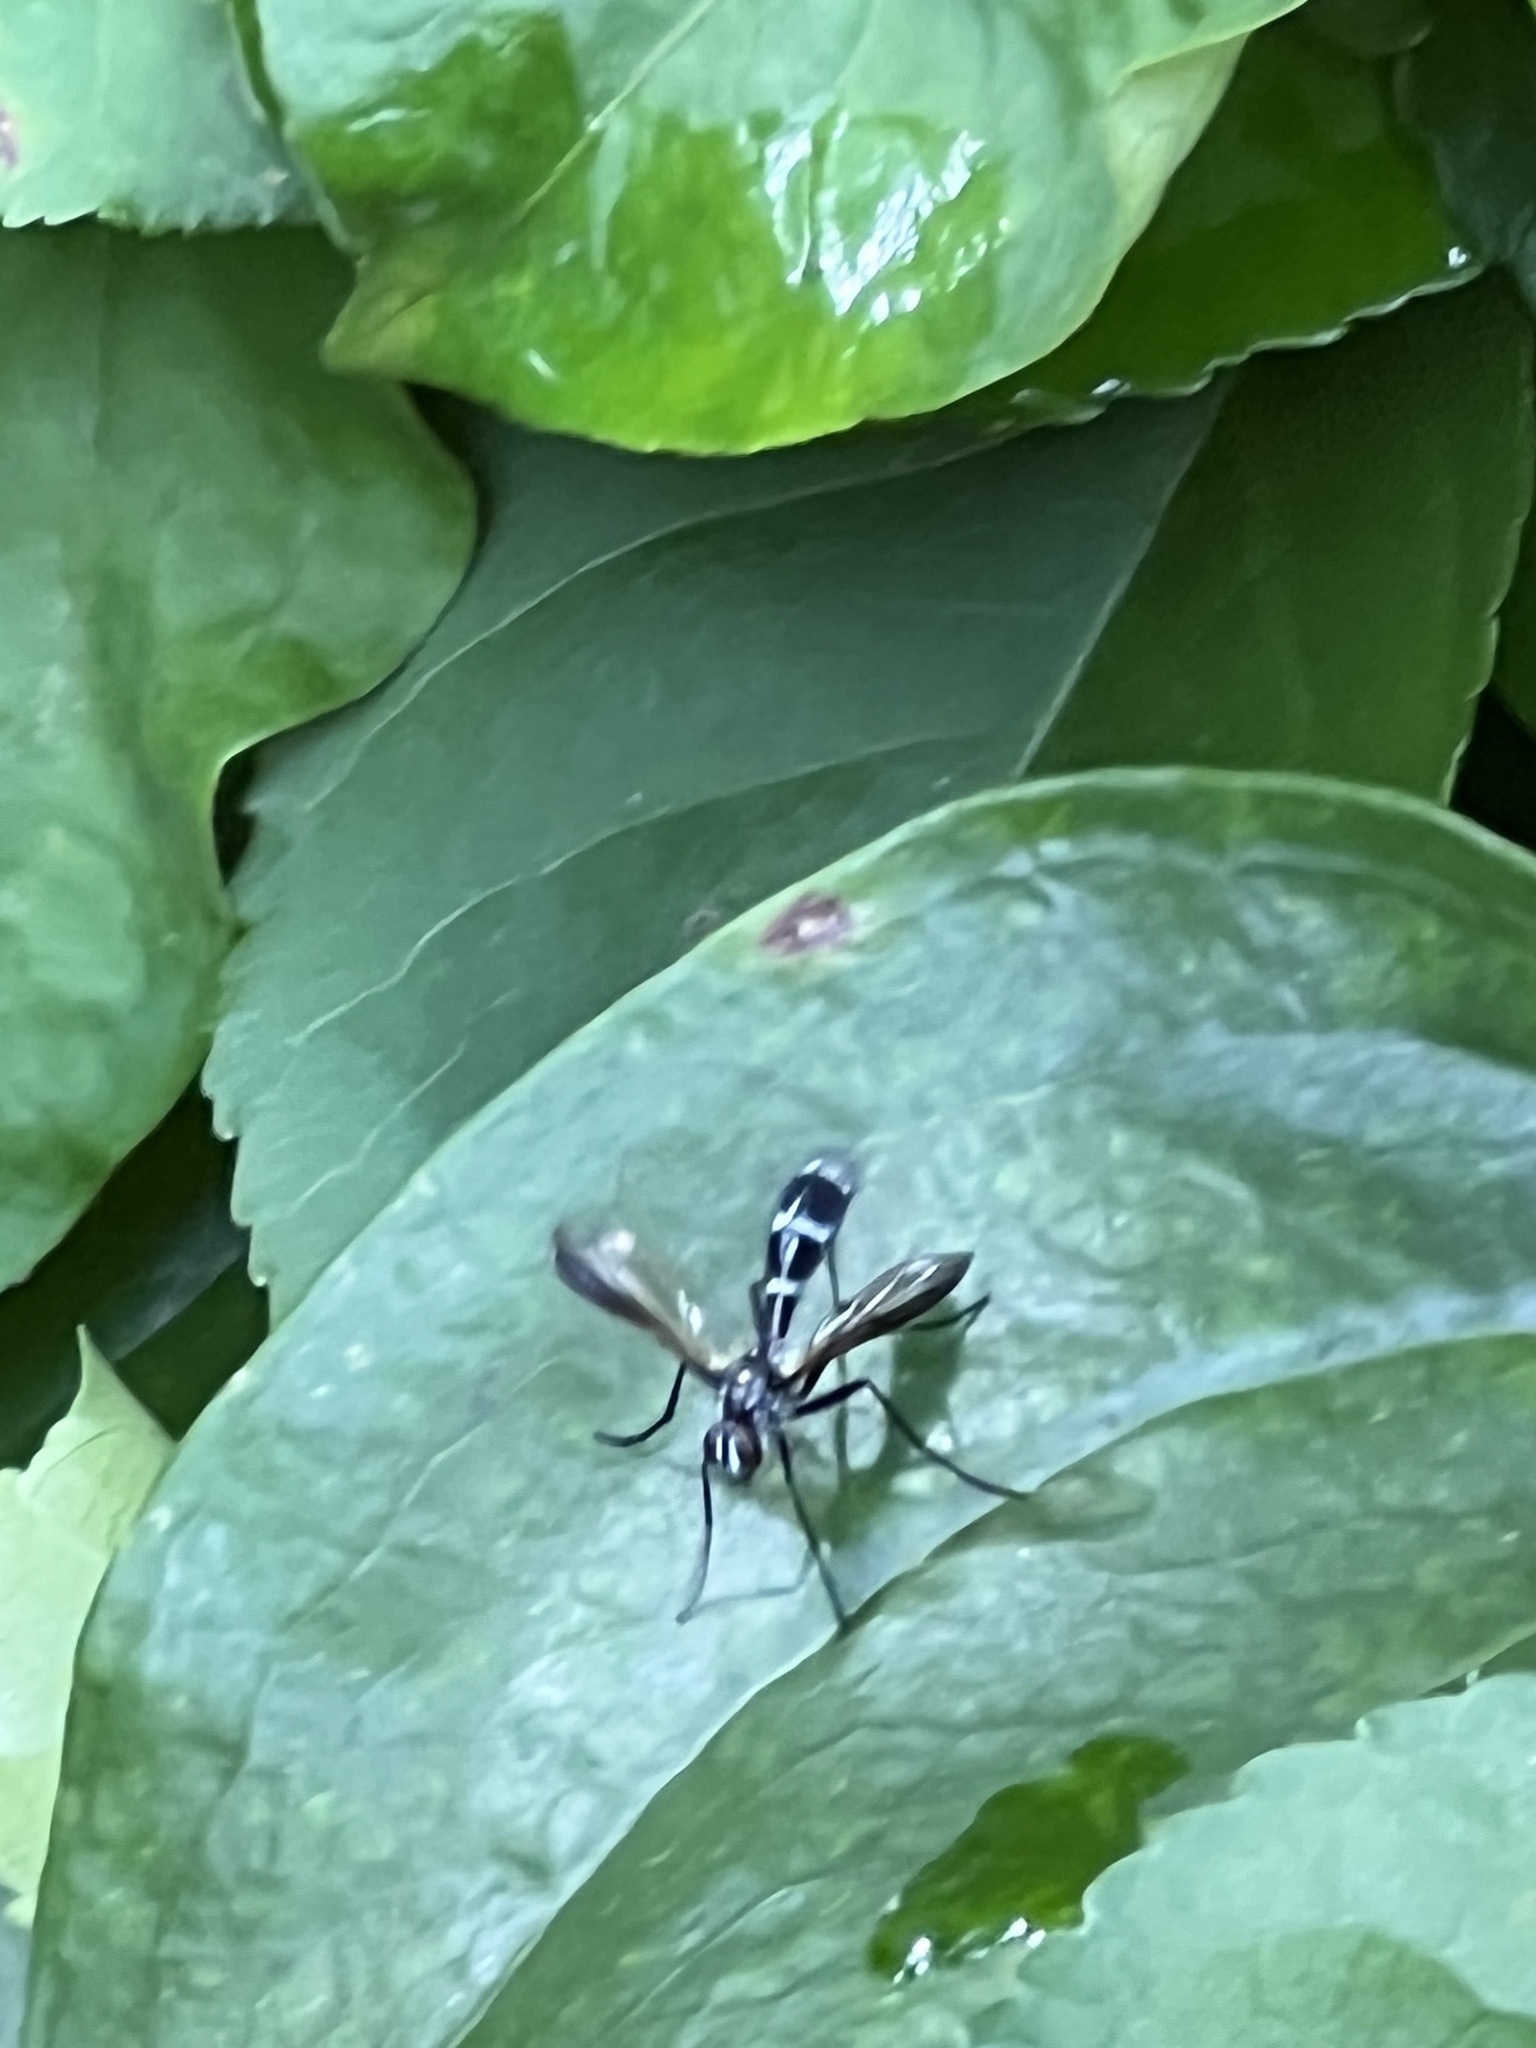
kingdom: Animalia
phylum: Arthropoda
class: Insecta
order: Diptera
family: Tachinidae
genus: Cordyligaster
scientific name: Cordyligaster septentrionalis
